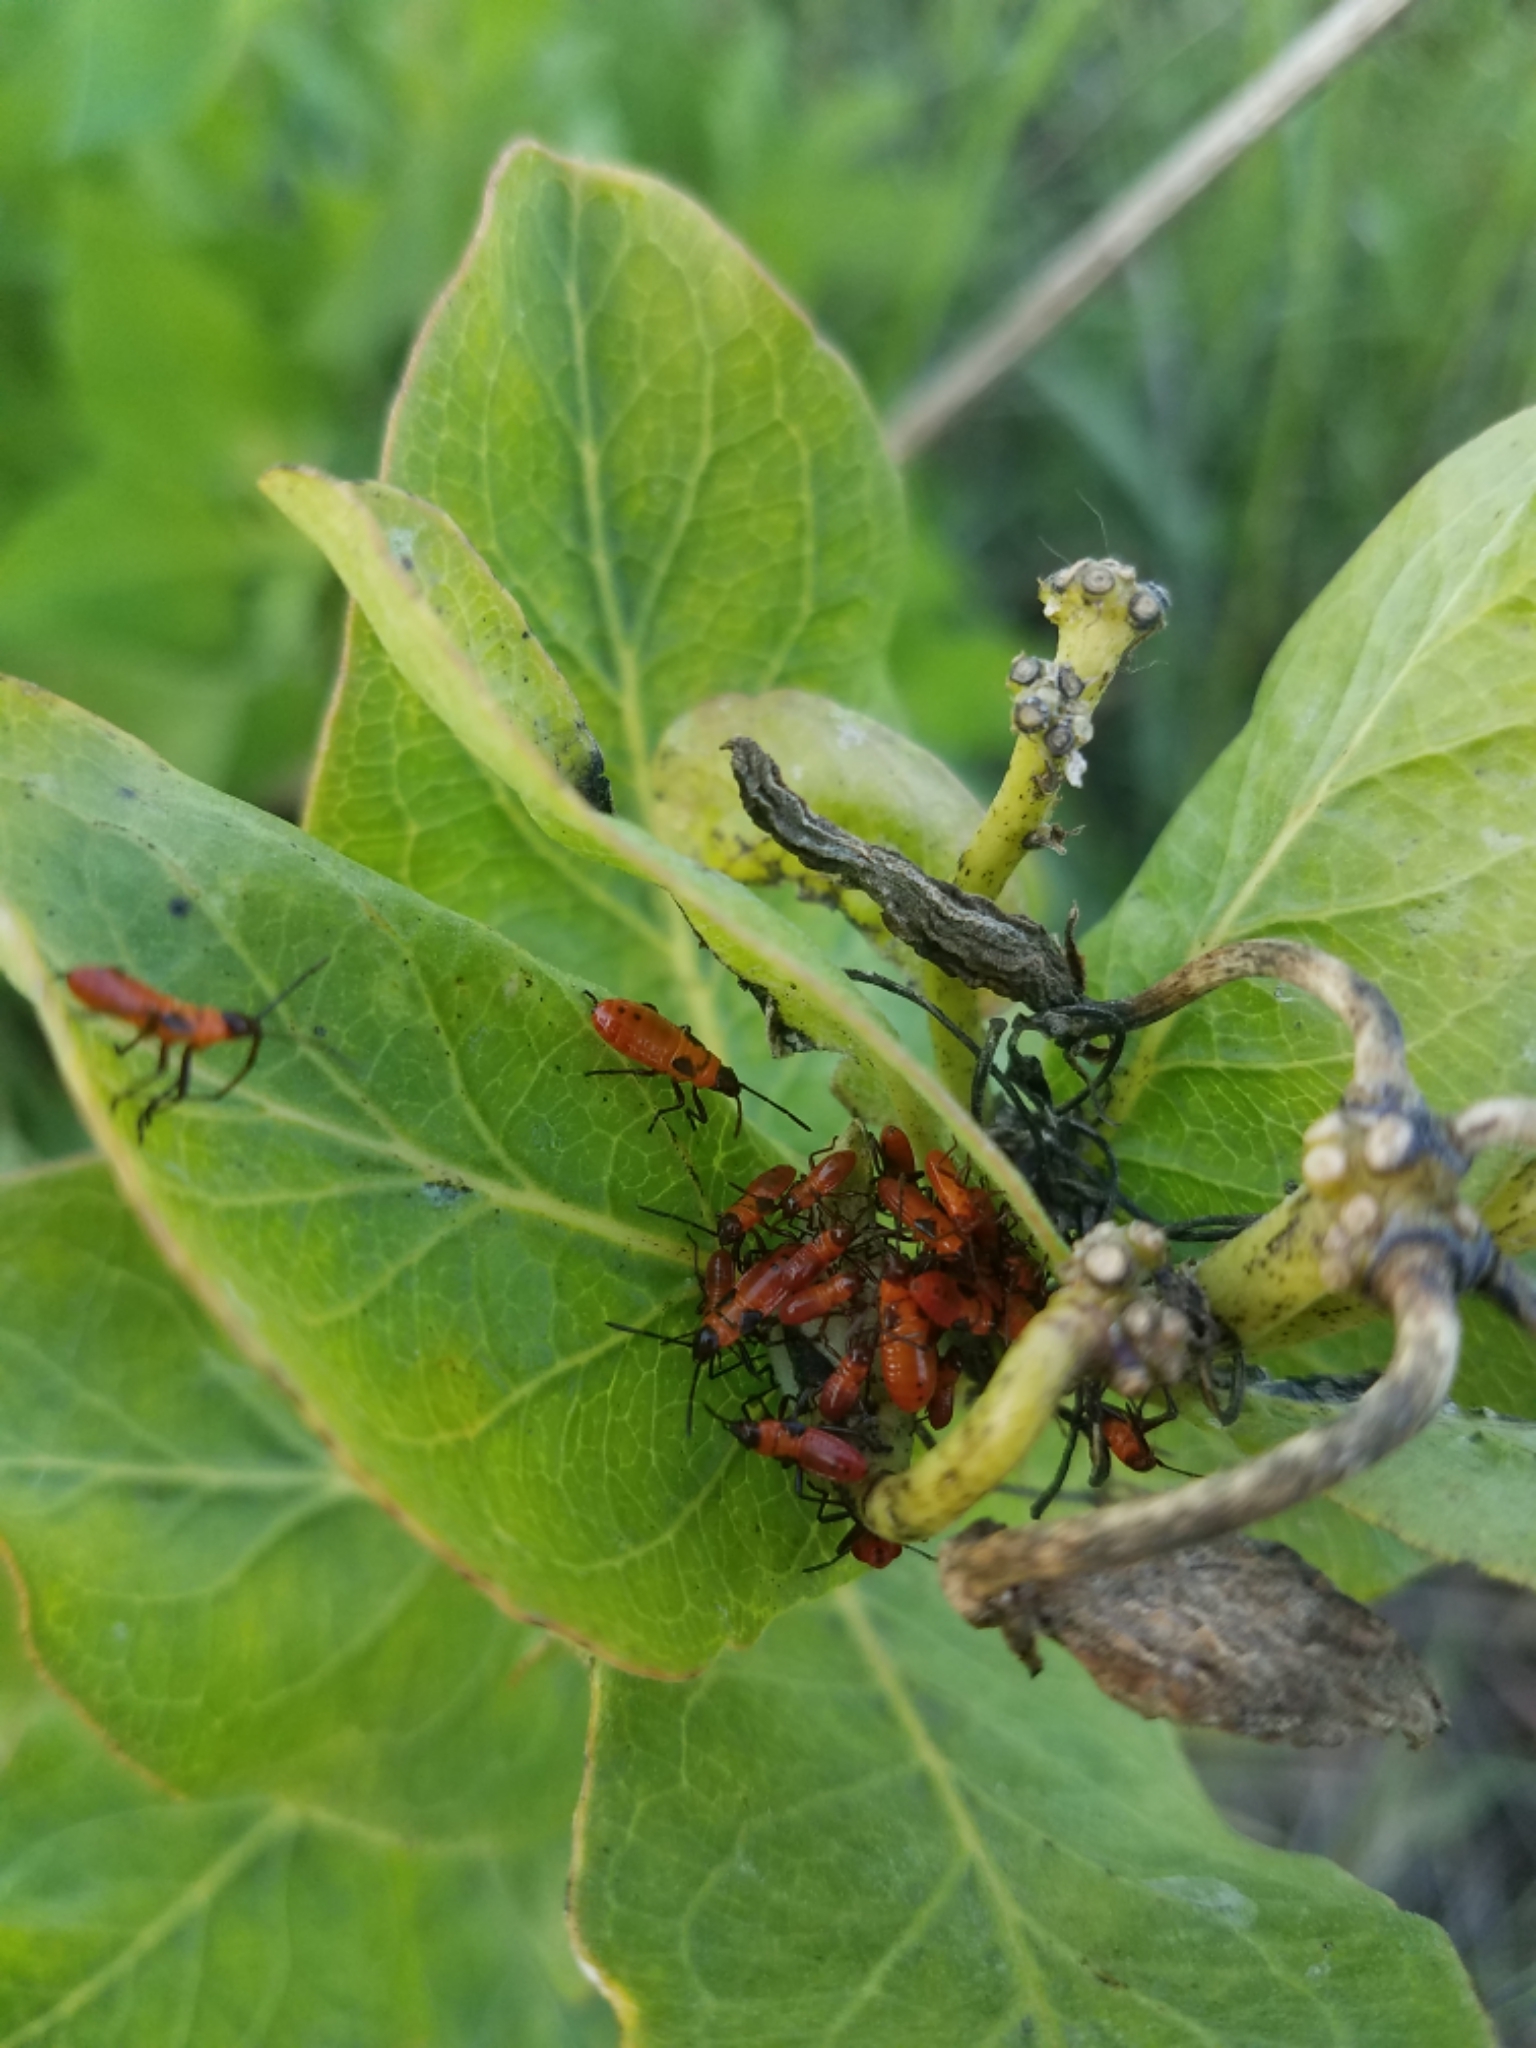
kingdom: Animalia
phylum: Arthropoda
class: Insecta
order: Hemiptera
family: Lygaeidae
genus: Oncopeltus
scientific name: Oncopeltus fasciatus
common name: Large milkweed bug
